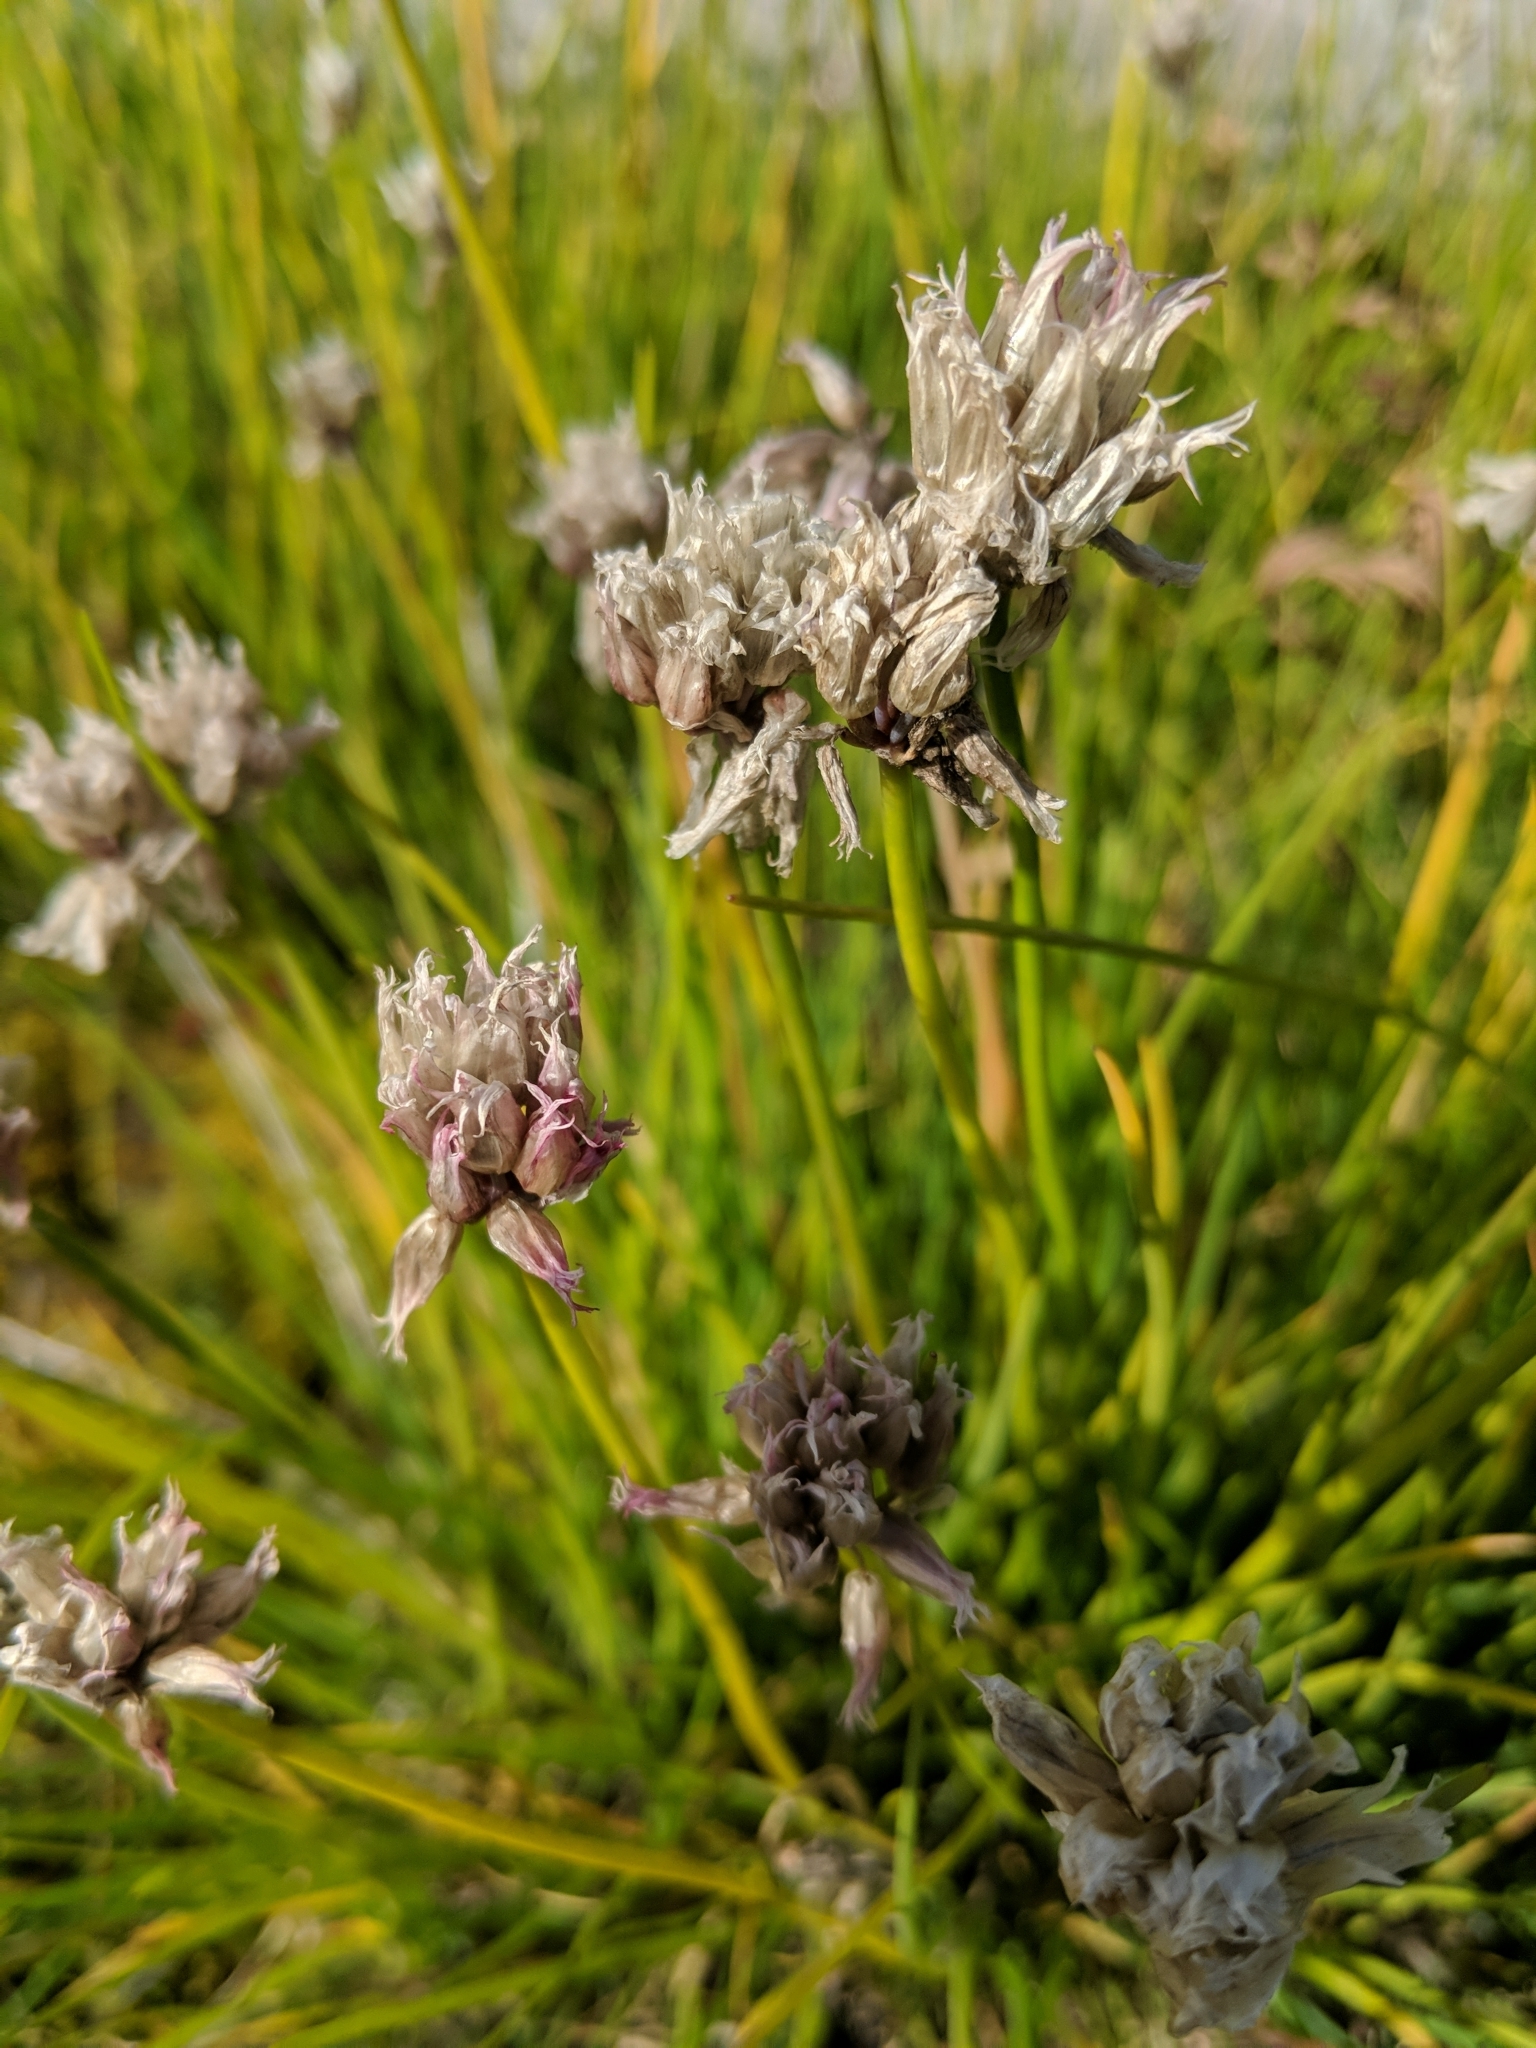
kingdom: Plantae
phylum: Tracheophyta
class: Liliopsida
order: Asparagales
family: Amaryllidaceae
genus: Allium
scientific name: Allium schoenoprasum
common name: Chives
